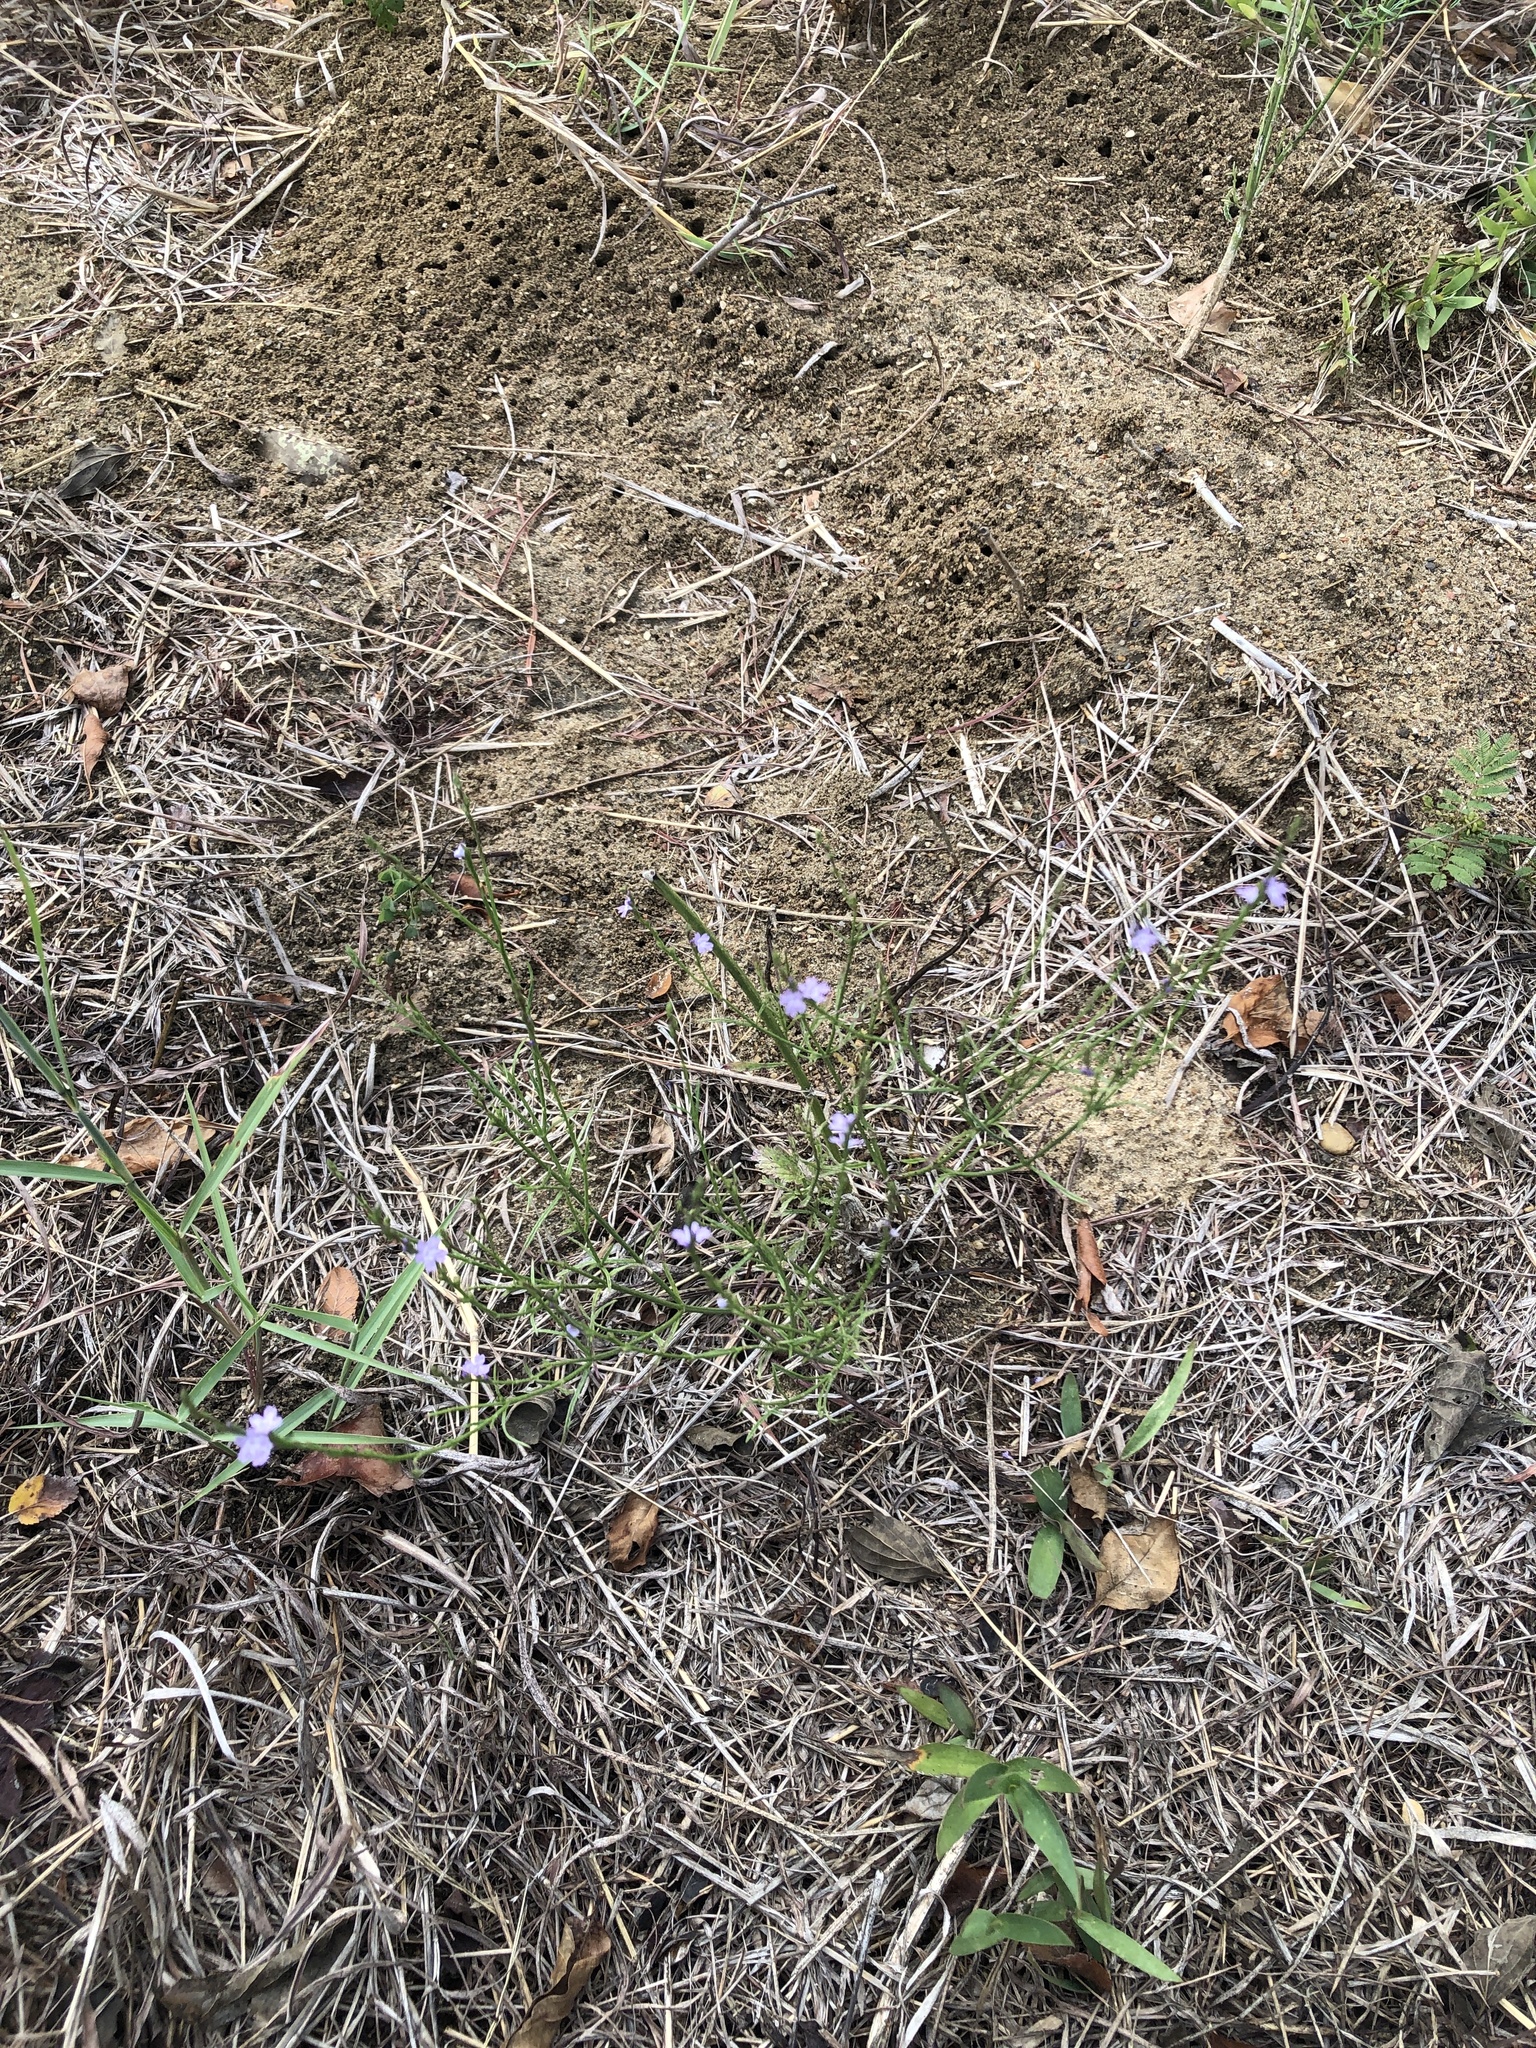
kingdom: Plantae
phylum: Tracheophyta
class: Magnoliopsida
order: Lamiales
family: Verbenaceae
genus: Verbena
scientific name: Verbena halei
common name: Texas vervain
